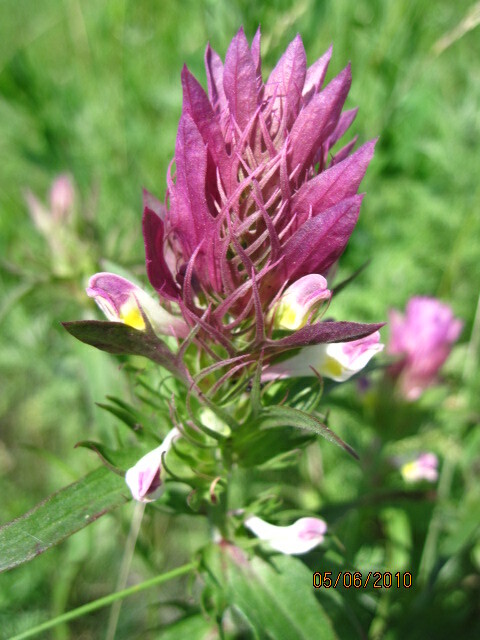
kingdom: Plantae
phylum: Tracheophyta
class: Magnoliopsida
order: Lamiales
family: Orobanchaceae
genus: Melampyrum
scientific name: Melampyrum arvense
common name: Field cow-wheat
